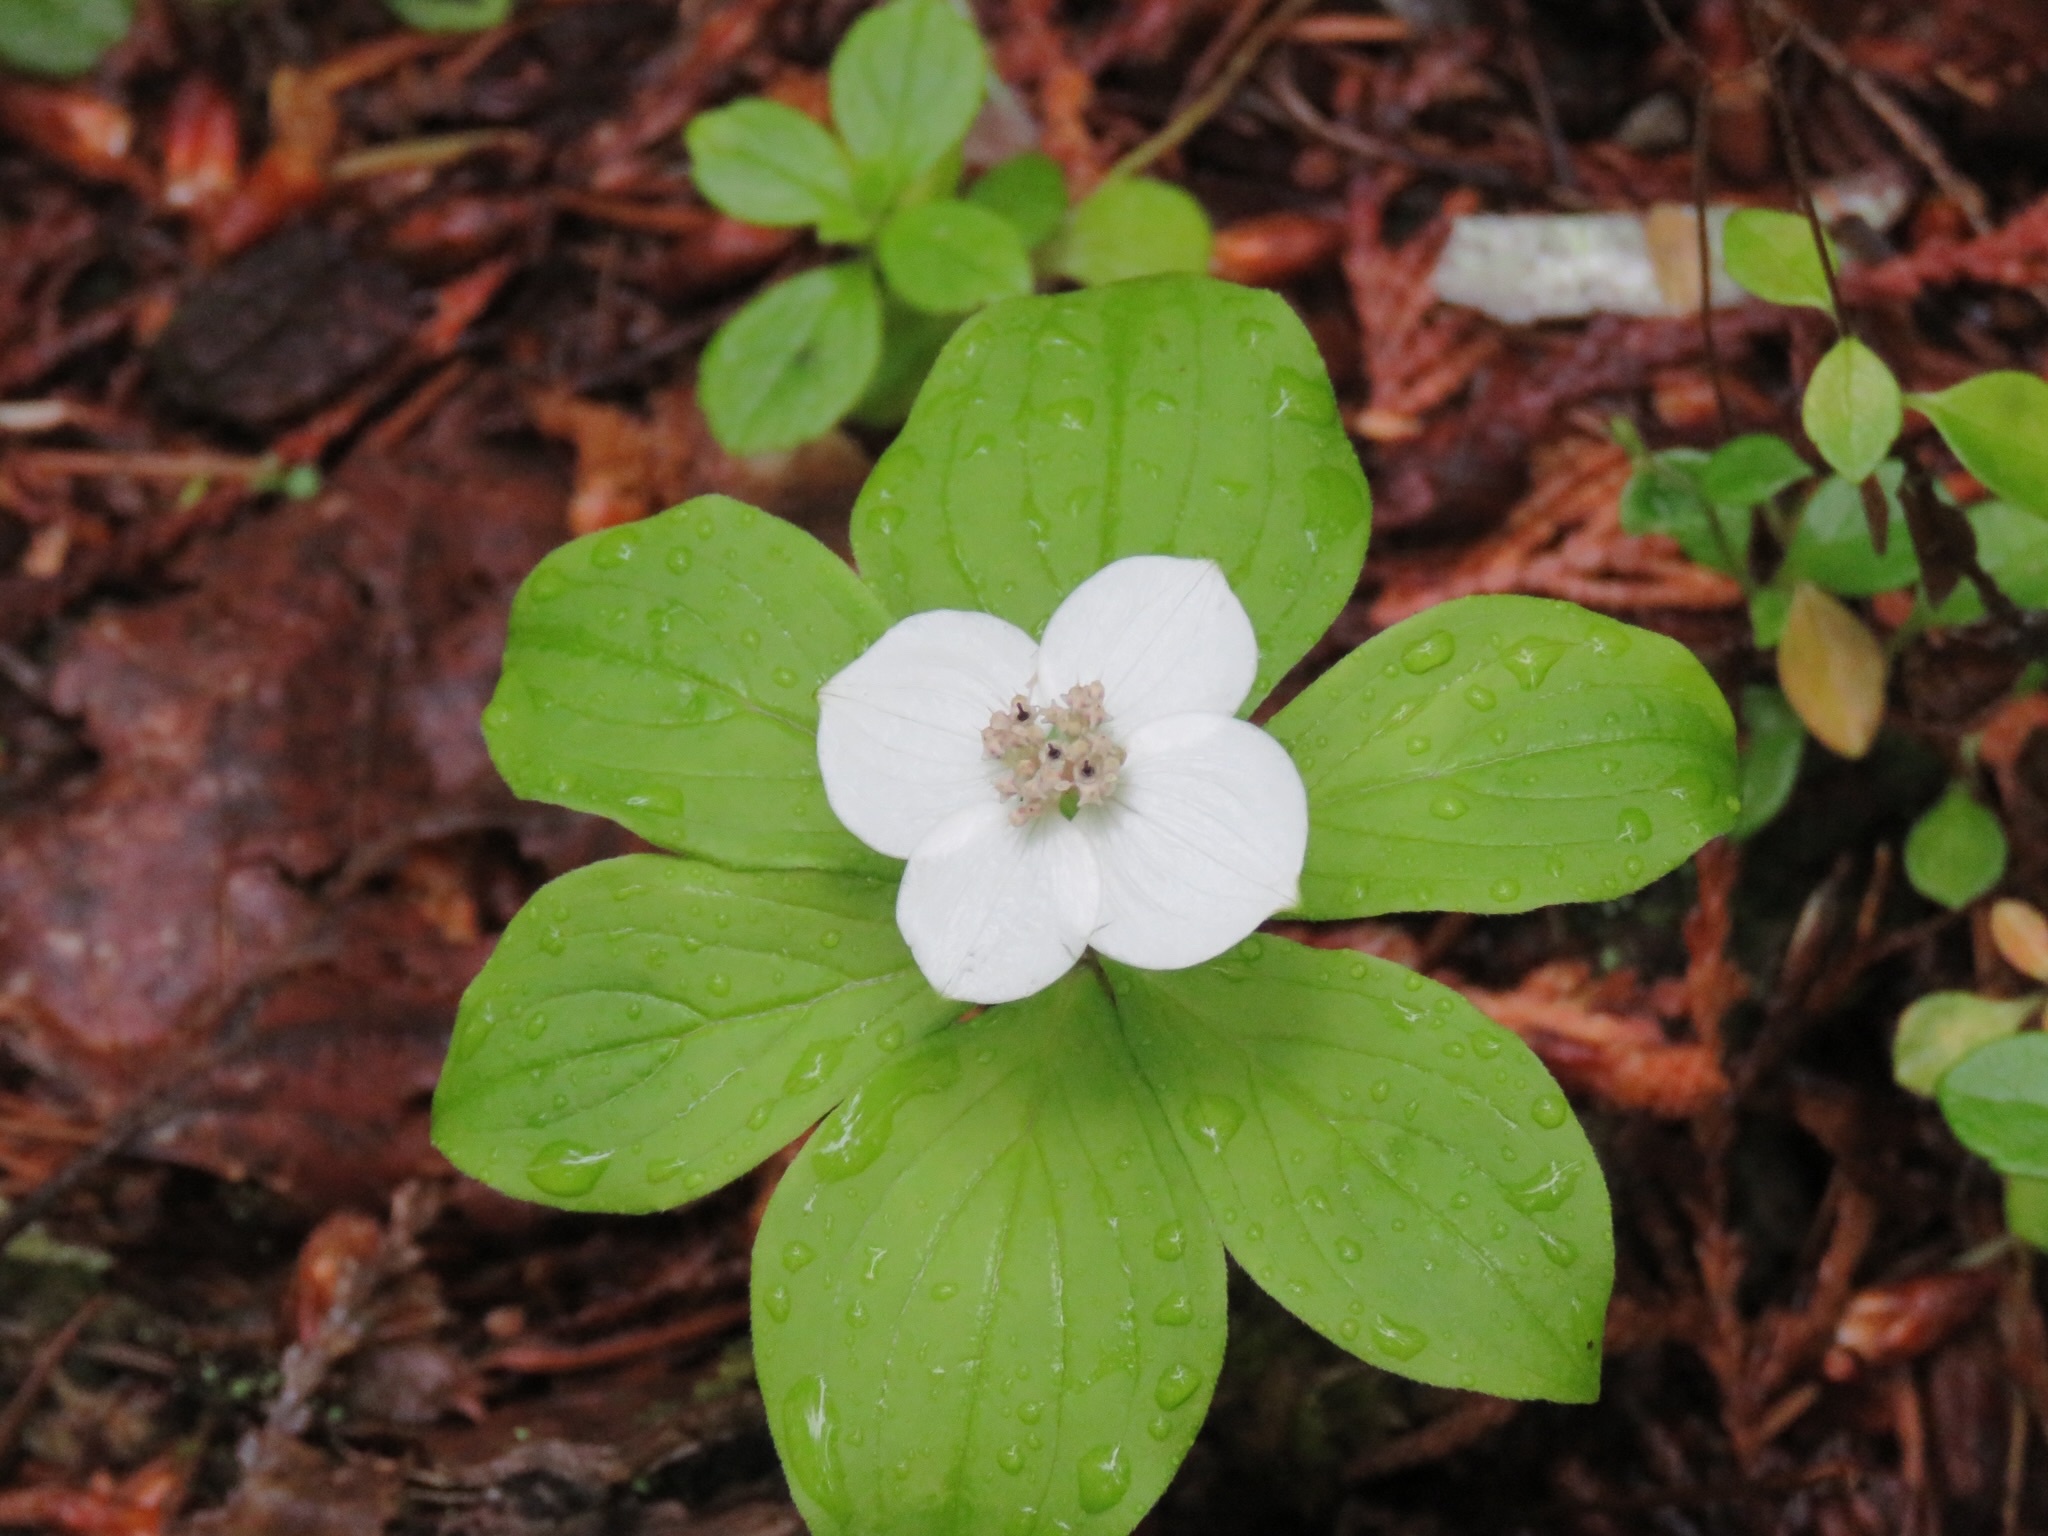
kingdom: Plantae
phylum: Tracheophyta
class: Magnoliopsida
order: Cornales
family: Cornaceae
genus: Cornus
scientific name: Cornus canadensis
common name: Creeping dogwood
